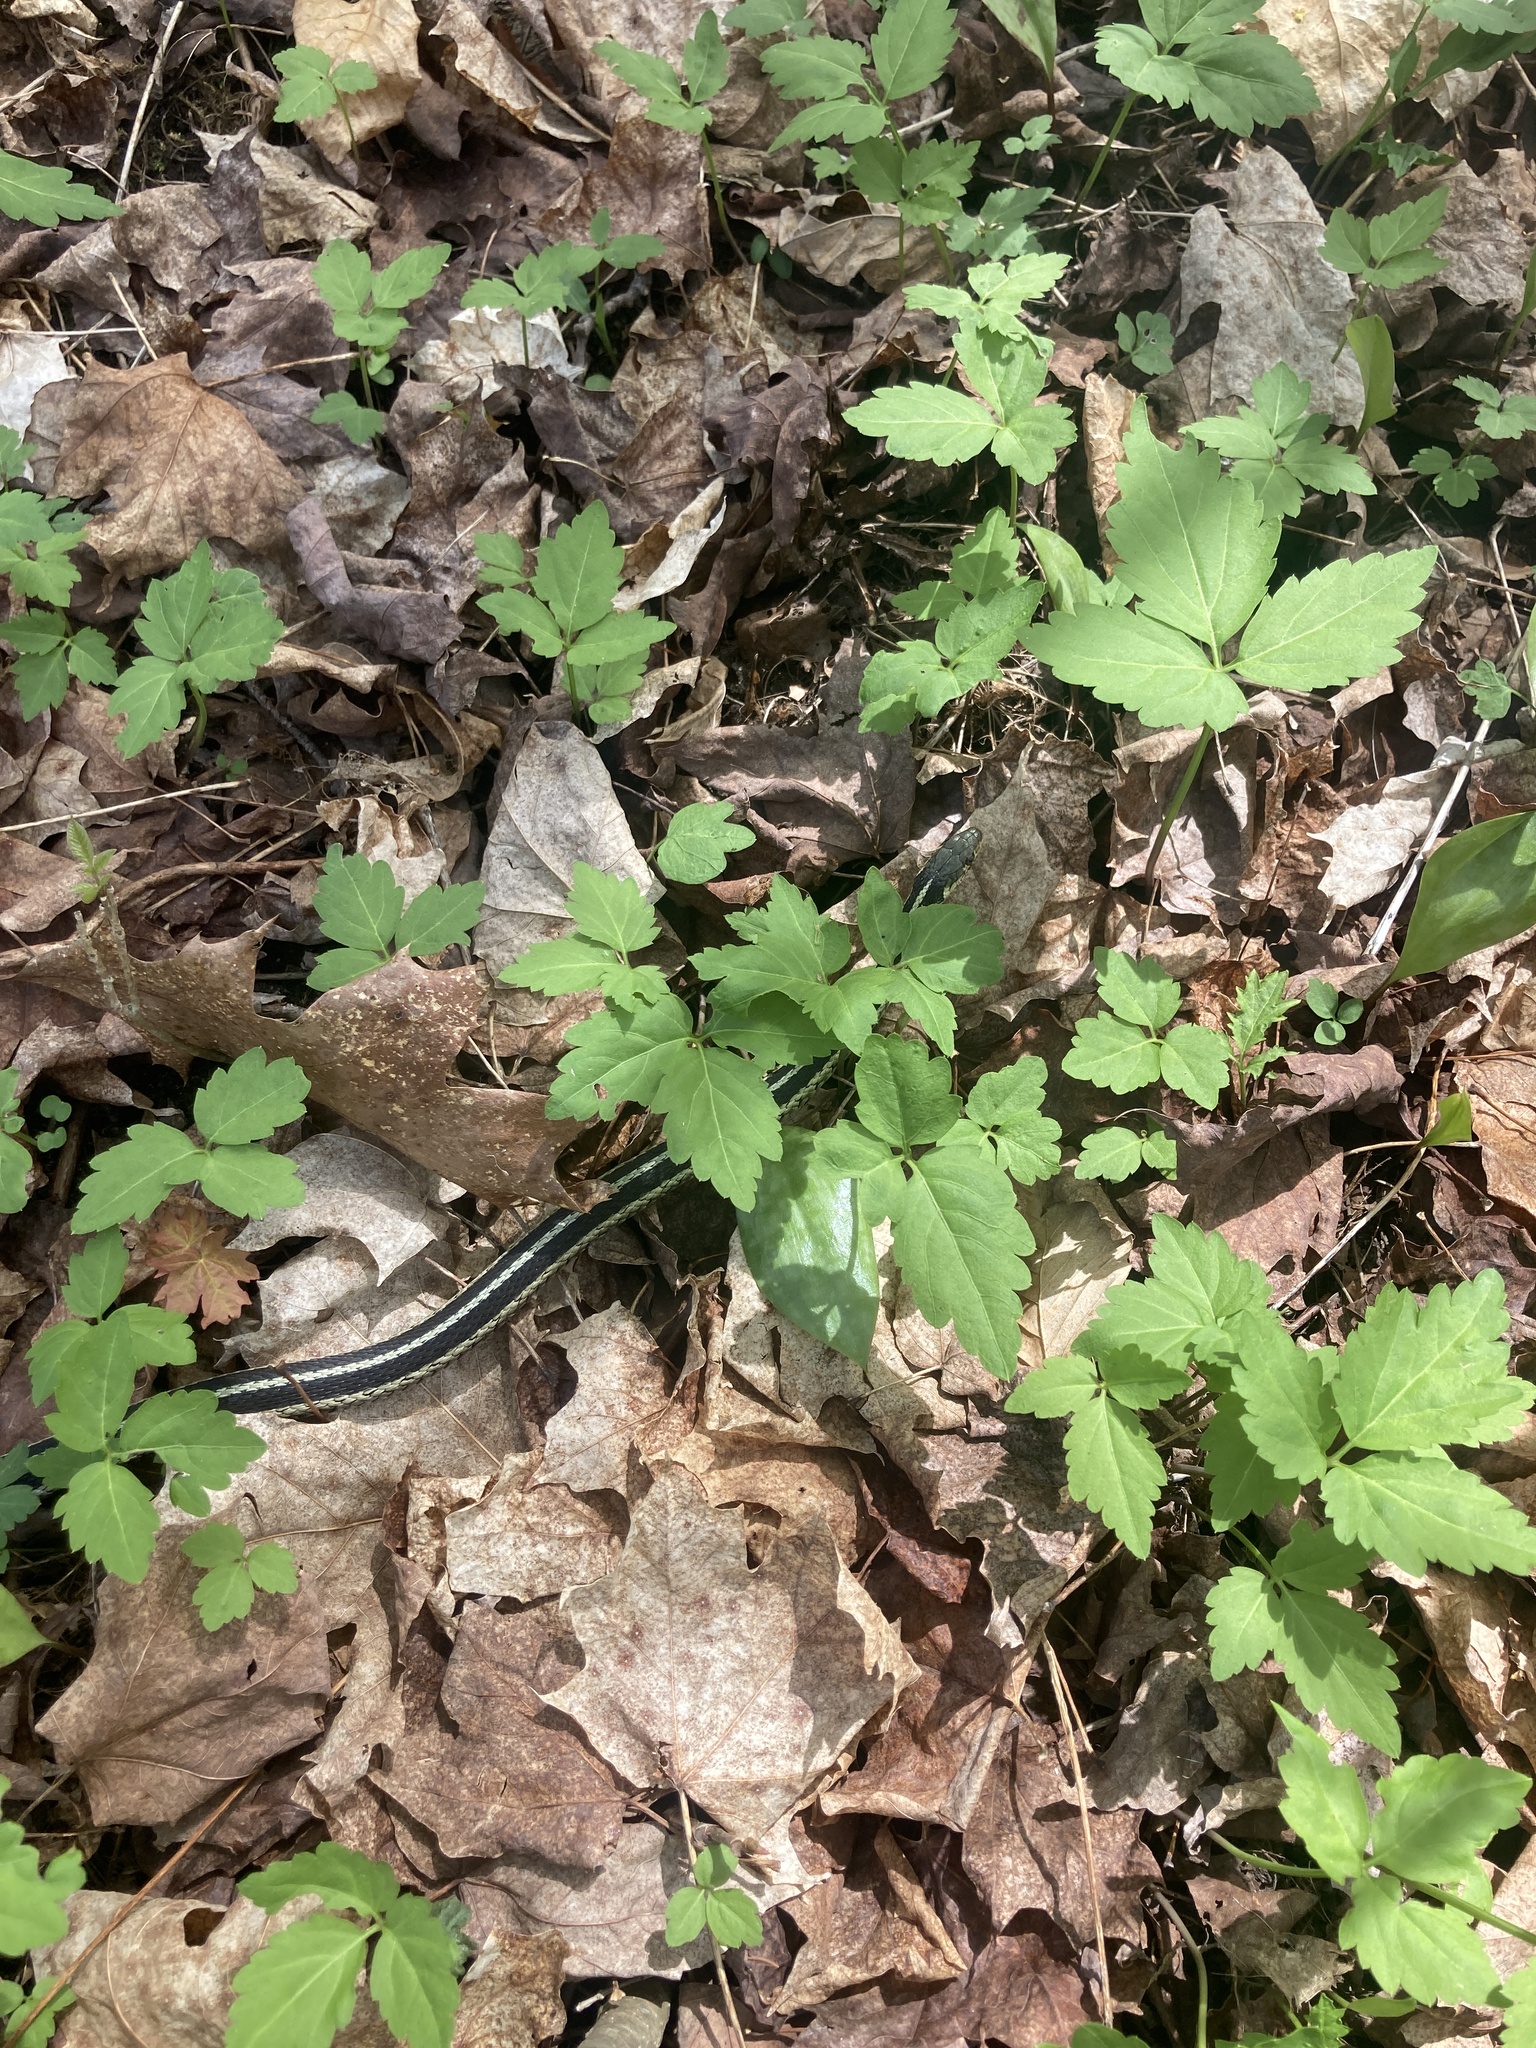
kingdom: Animalia
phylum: Chordata
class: Squamata
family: Colubridae
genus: Thamnophis
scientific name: Thamnophis sirtalis
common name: Common garter snake
